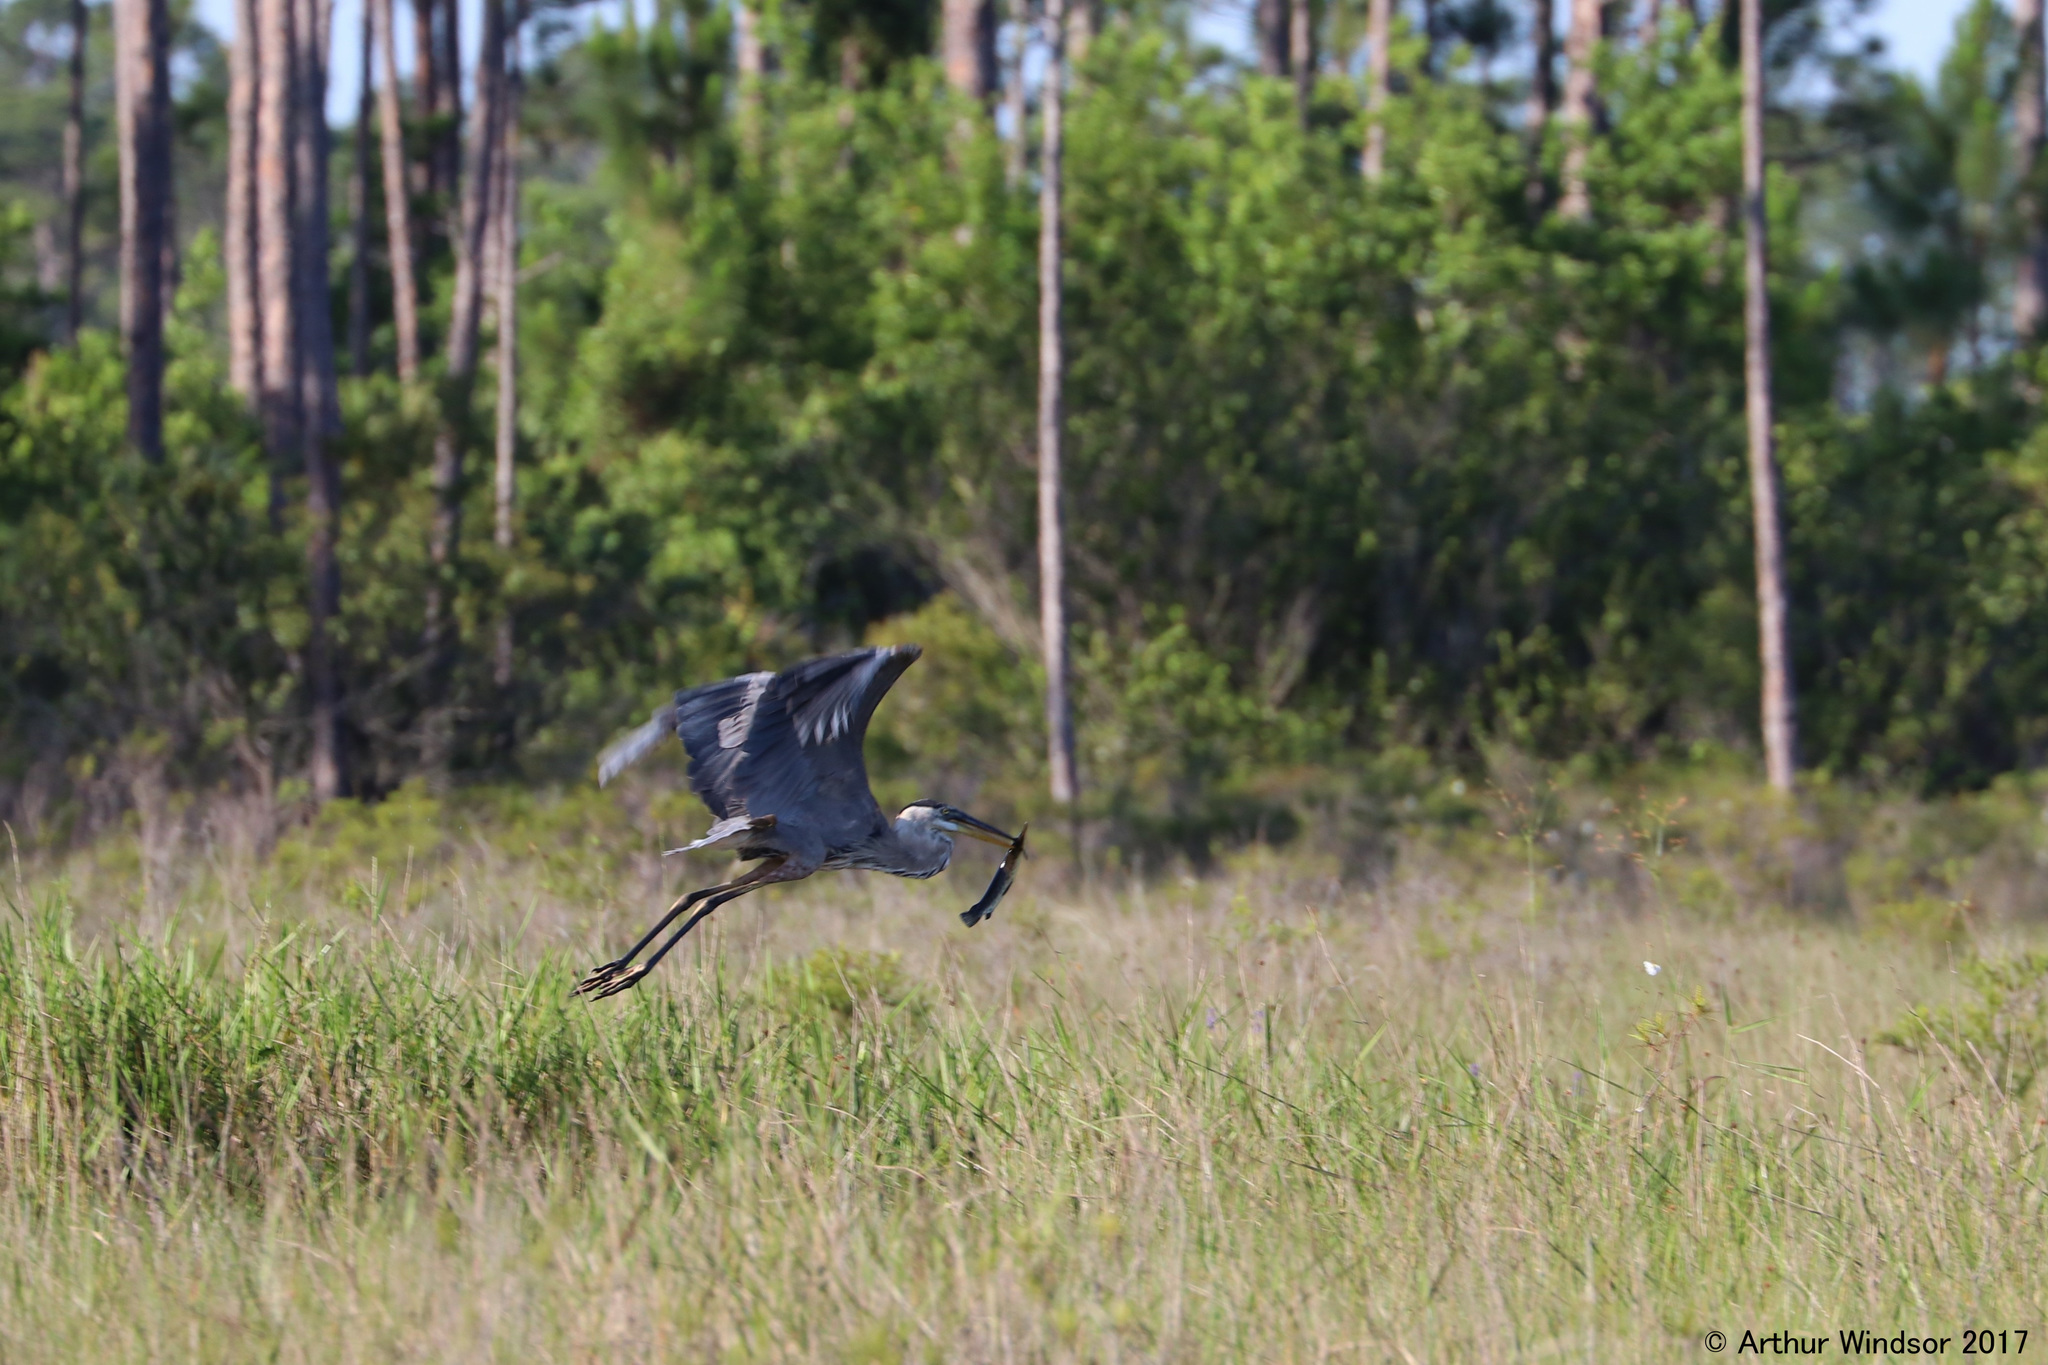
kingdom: Animalia
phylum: Chordata
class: Aves
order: Pelecaniformes
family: Ardeidae
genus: Ardea
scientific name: Ardea herodias
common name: Great blue heron
